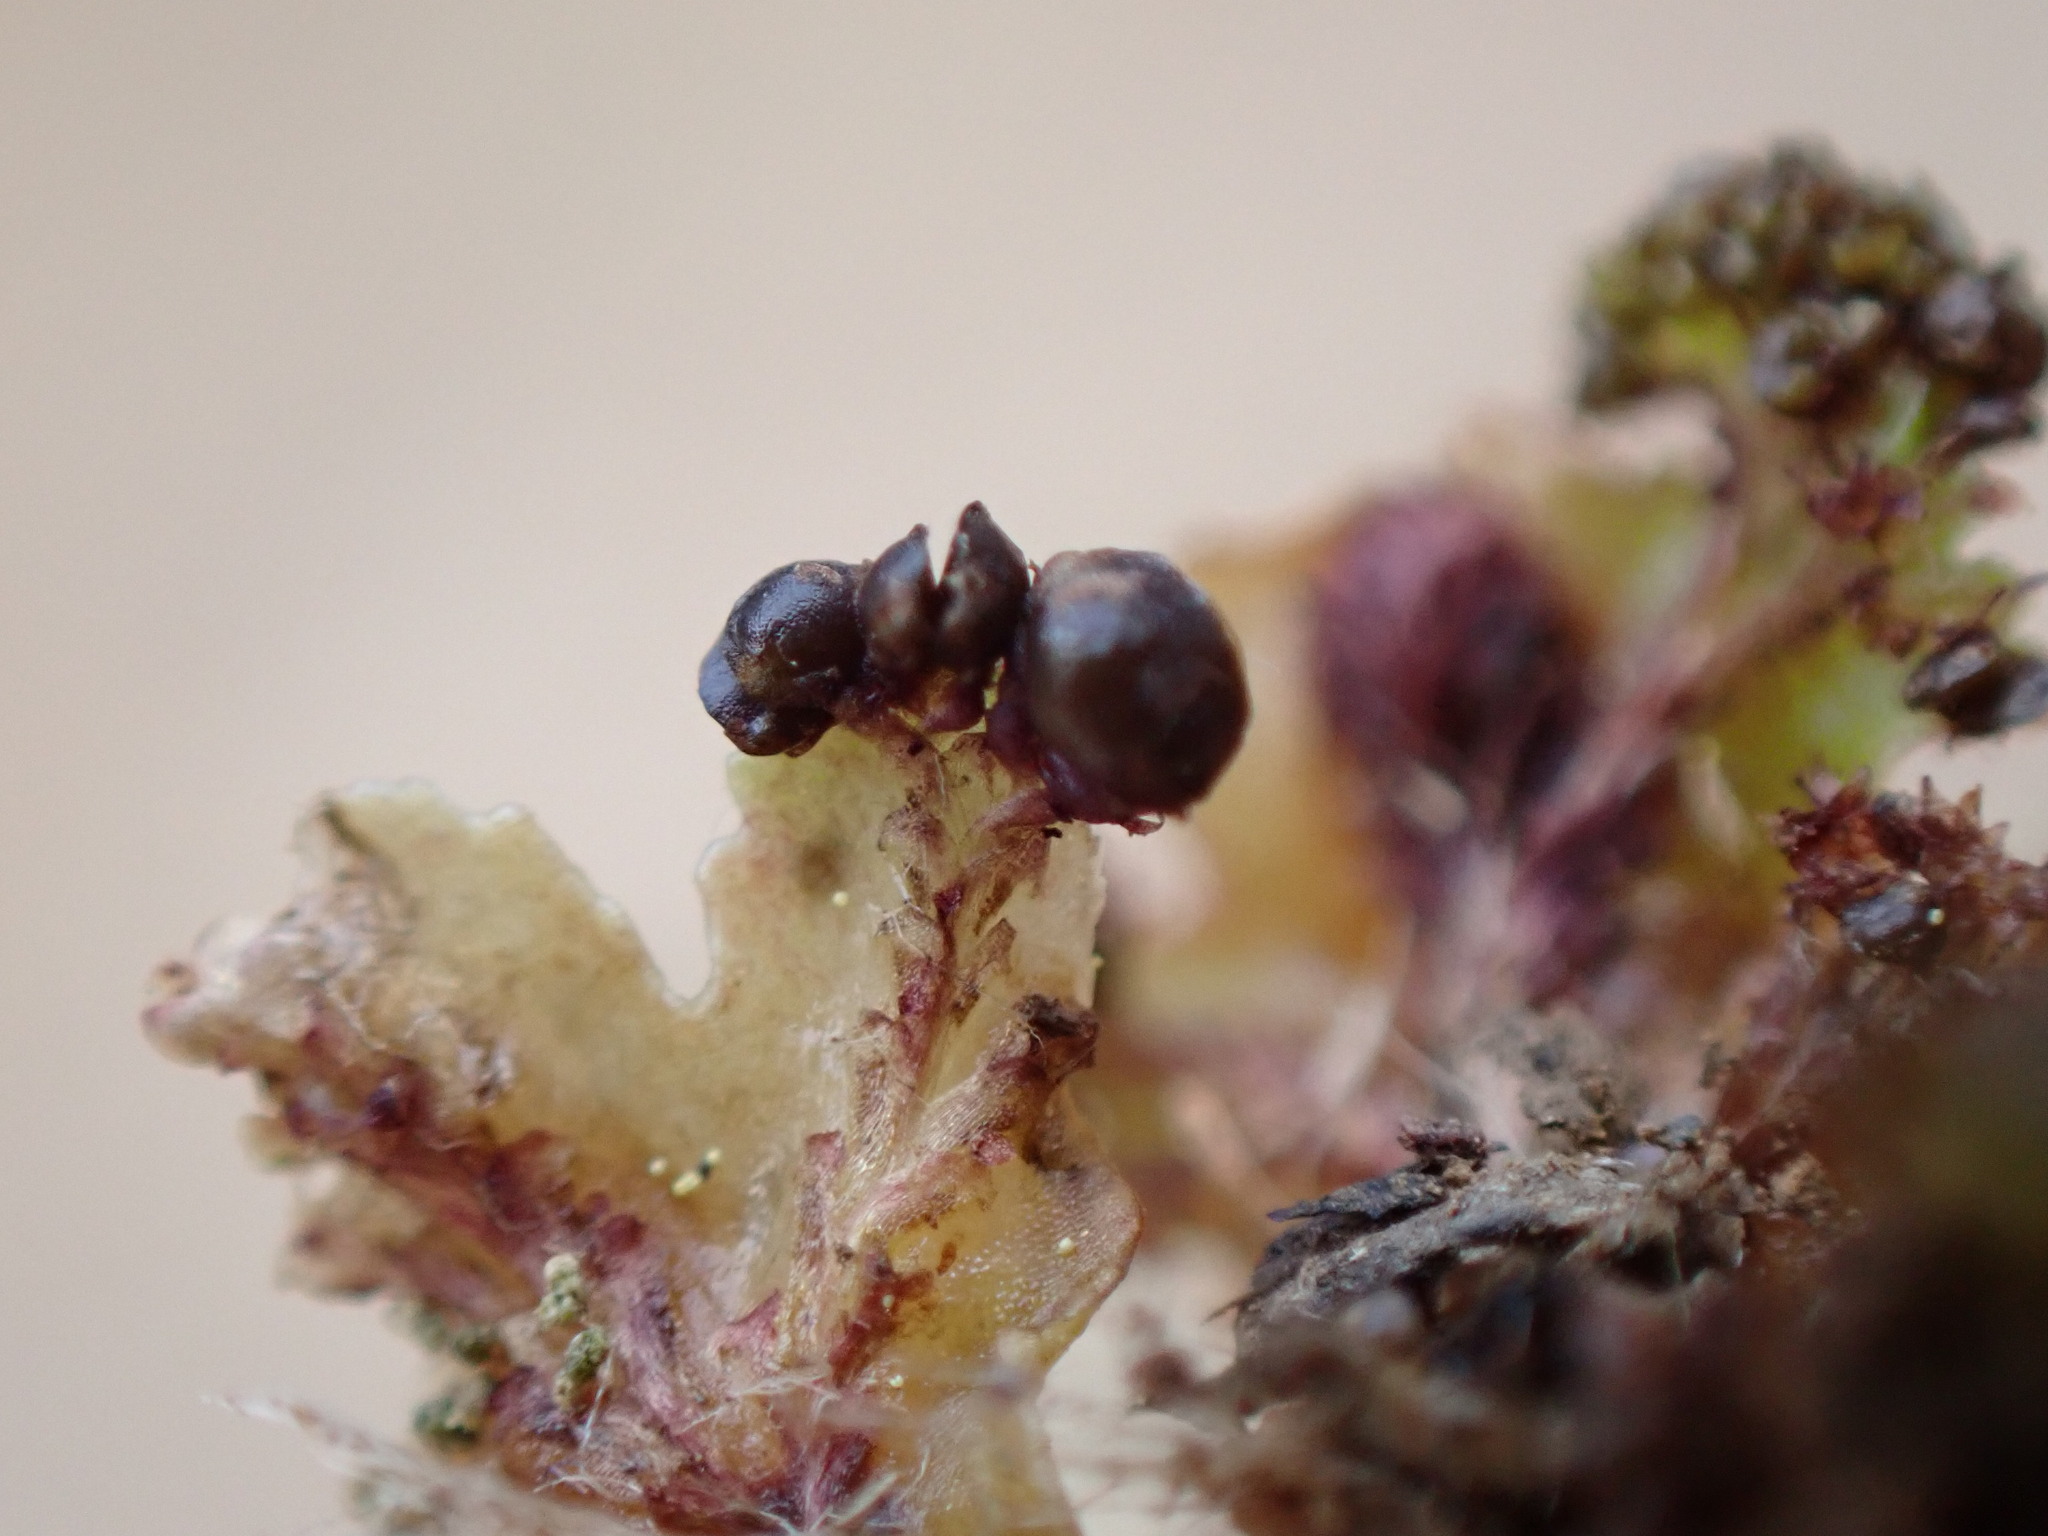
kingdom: Plantae
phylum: Marchantiophyta
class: Marchantiopsida
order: Marchantiales
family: Conocephalaceae
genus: Sandea
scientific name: Sandea japonica
